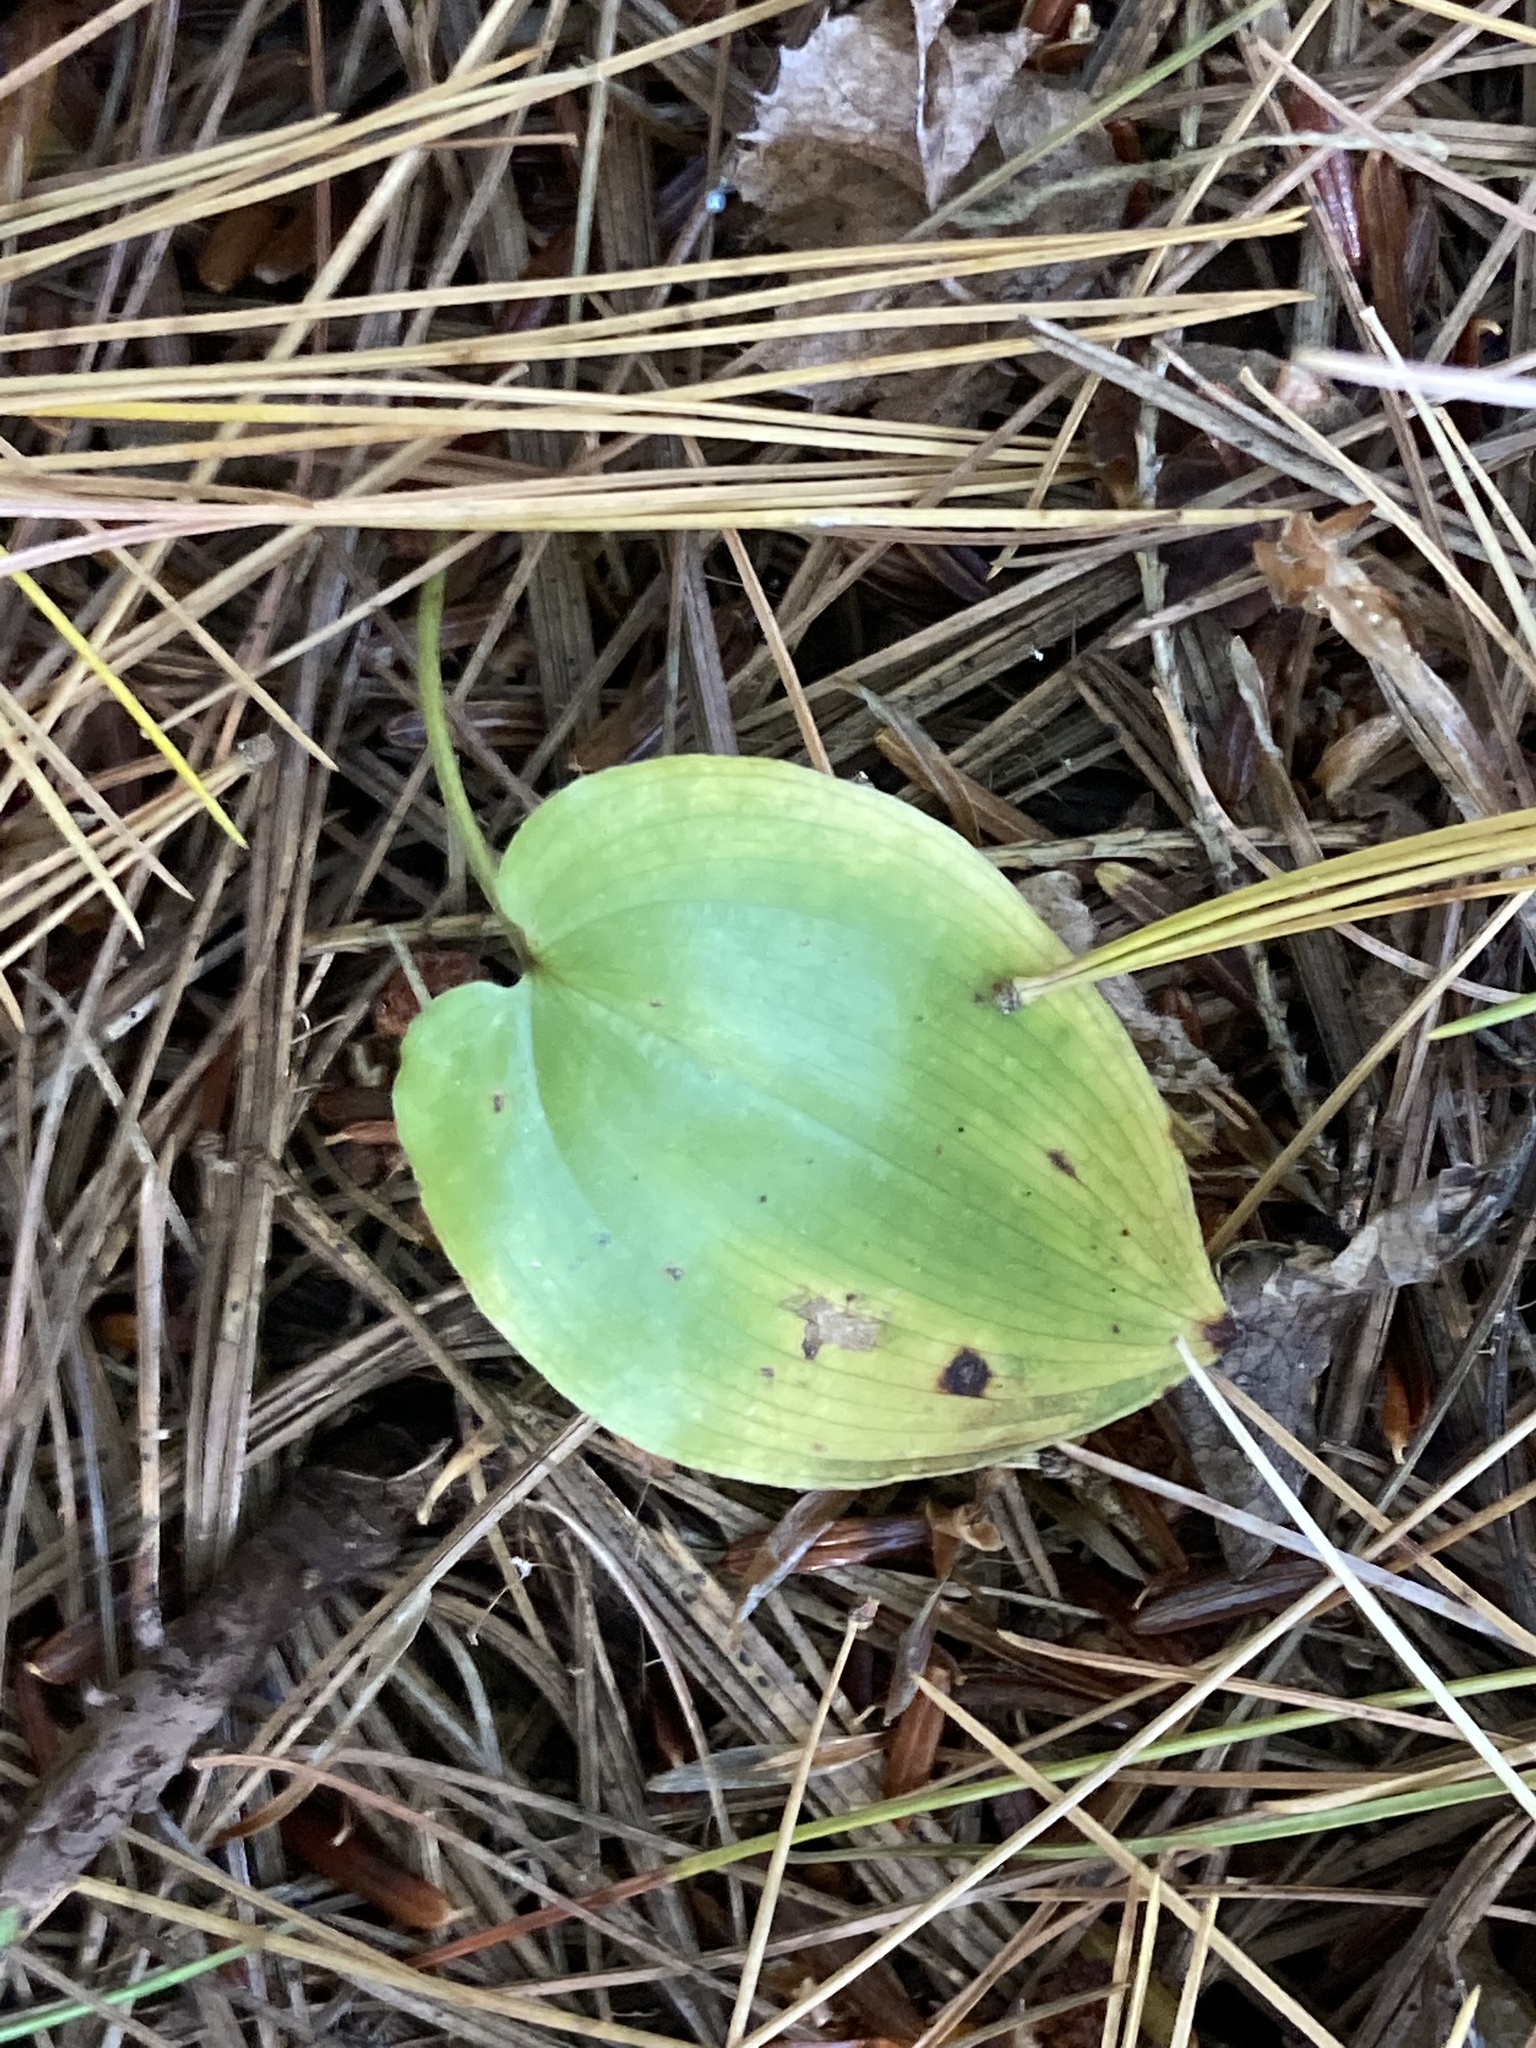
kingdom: Plantae
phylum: Tracheophyta
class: Liliopsida
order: Asparagales
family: Asparagaceae
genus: Maianthemum
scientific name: Maianthemum canadense
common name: False lily-of-the-valley
